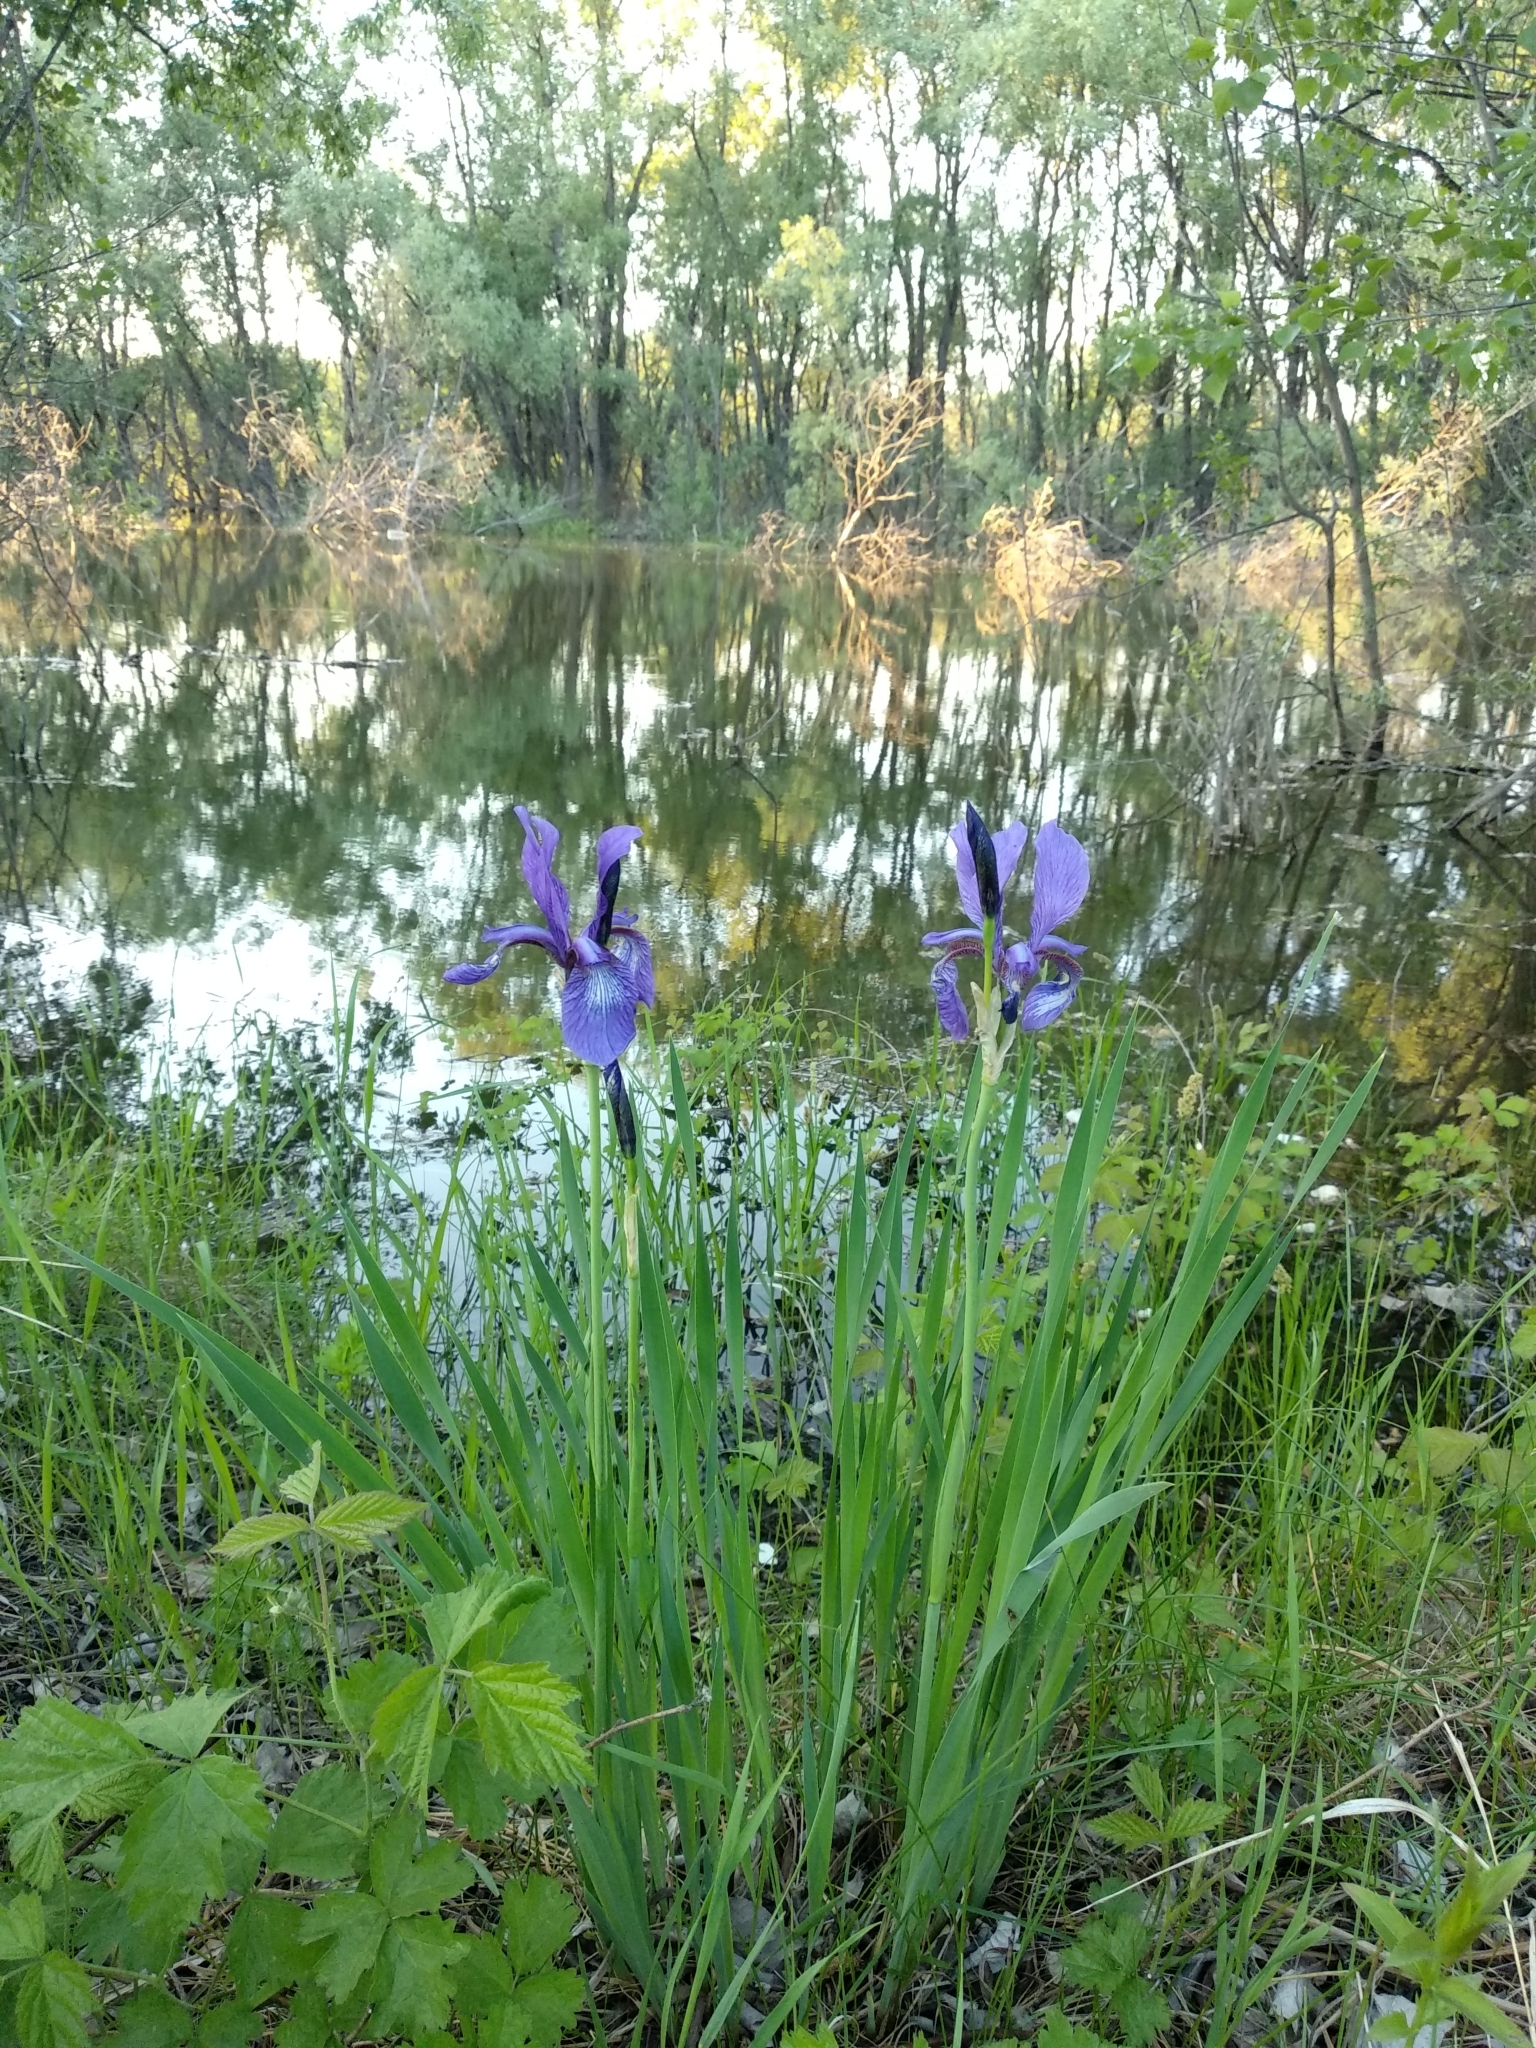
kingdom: Plantae
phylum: Tracheophyta
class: Liliopsida
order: Asparagales
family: Iridaceae
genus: Iris
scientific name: Iris sibirica
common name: Siberian iris
